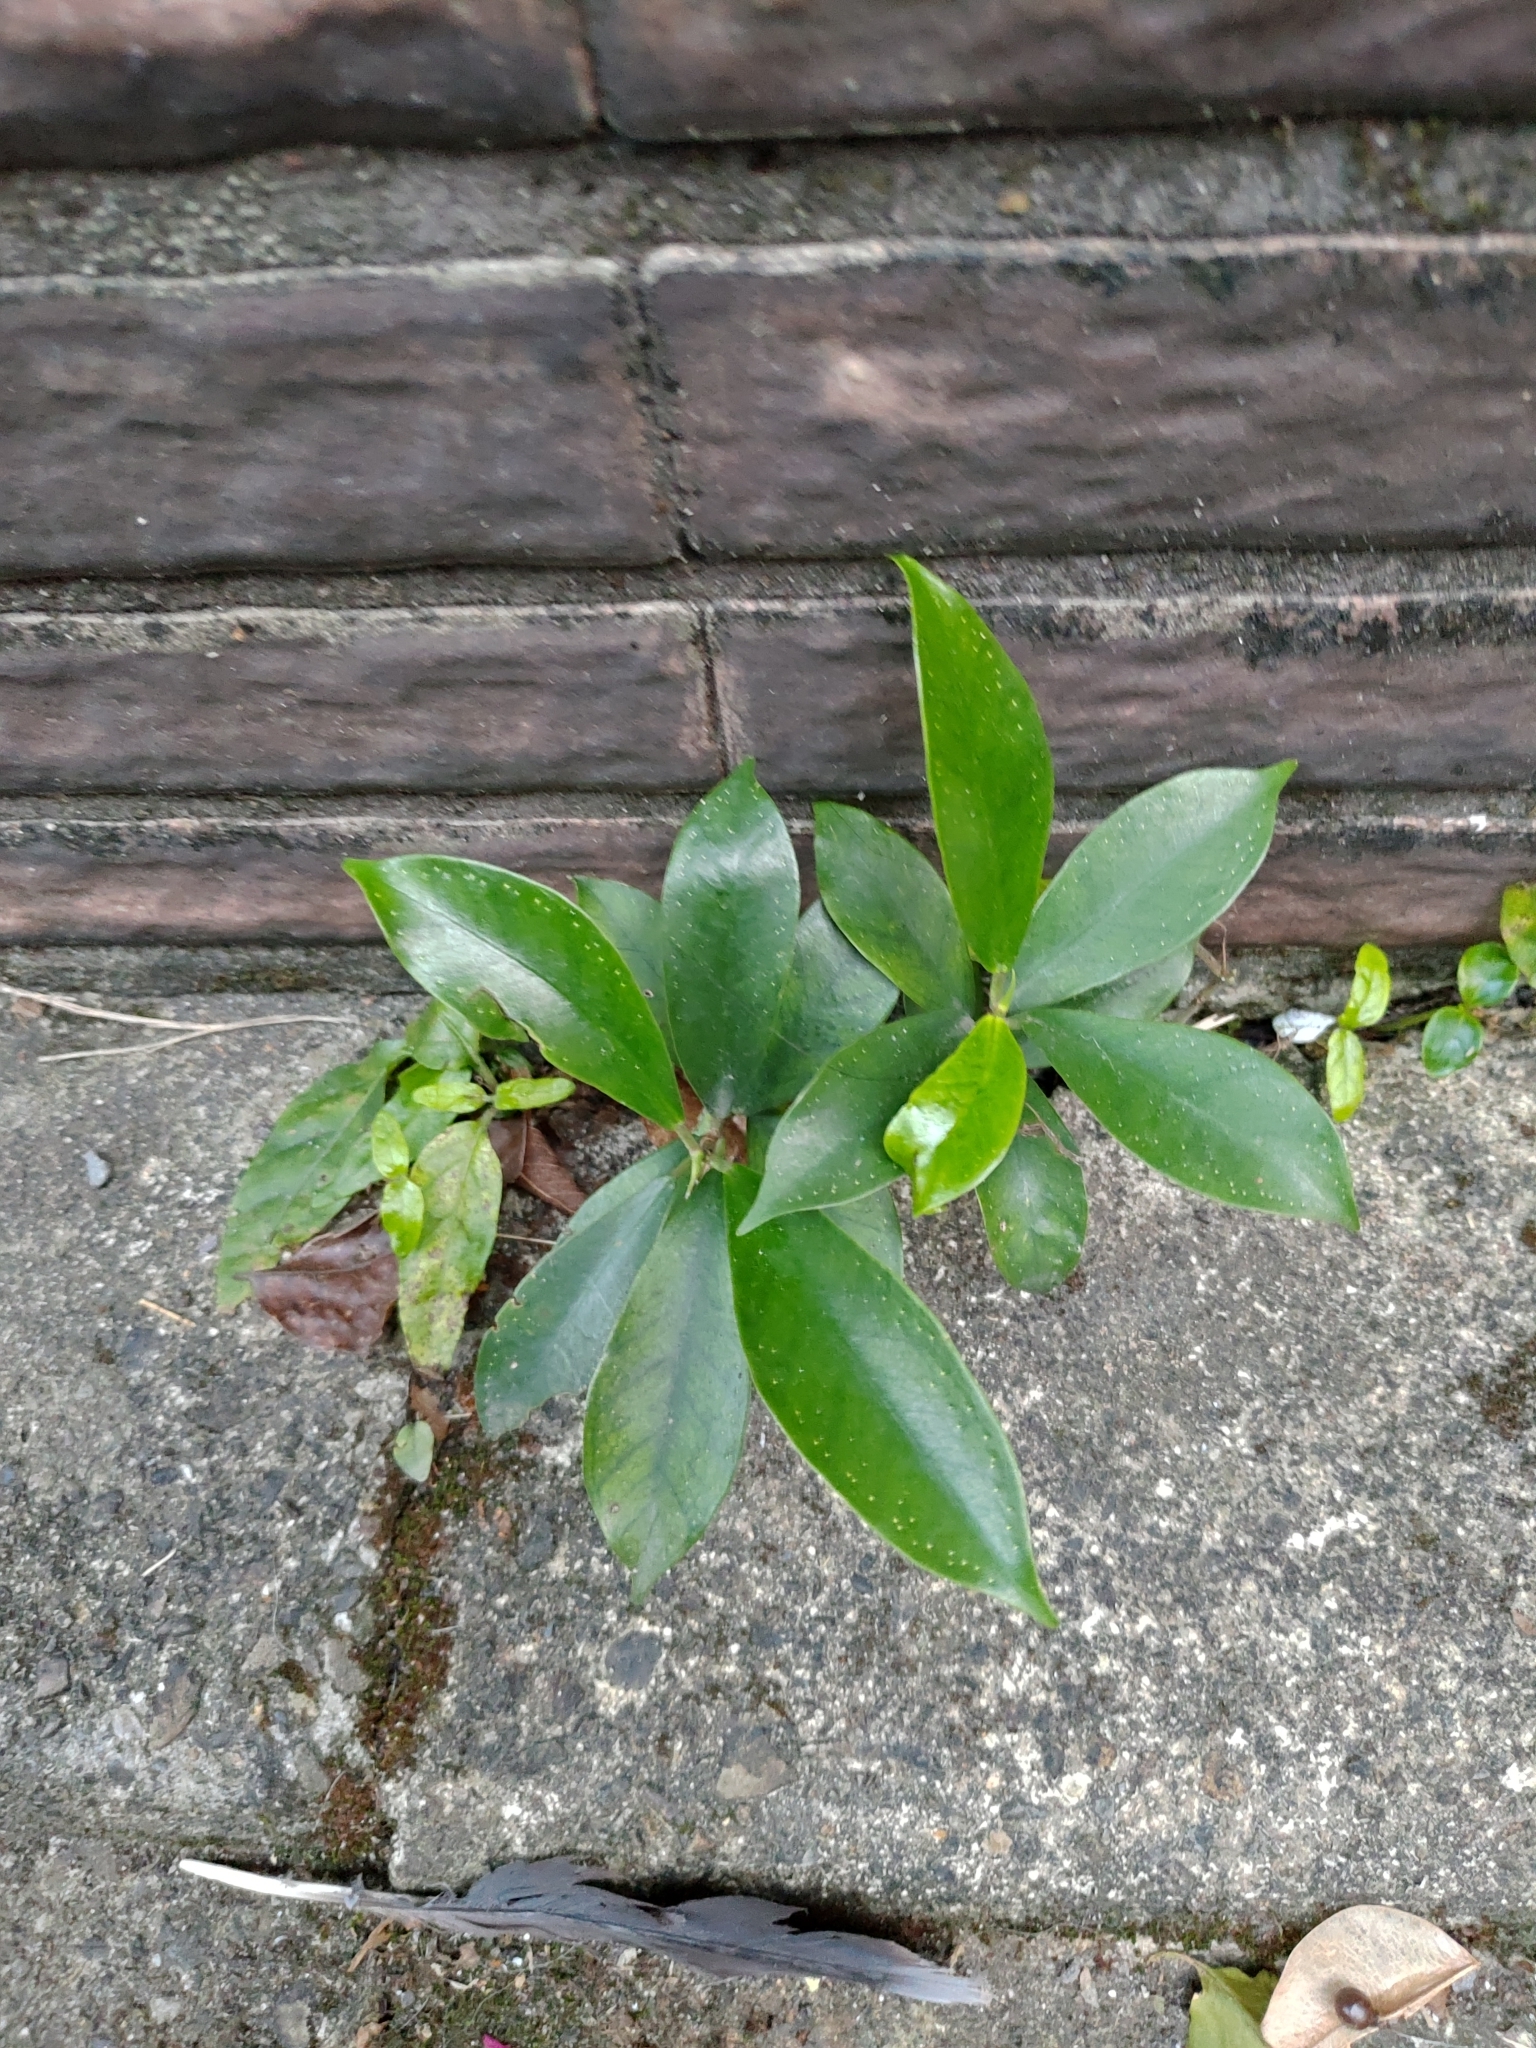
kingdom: Plantae
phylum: Tracheophyta
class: Magnoliopsida
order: Rosales
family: Moraceae
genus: Ficus
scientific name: Ficus formosana
